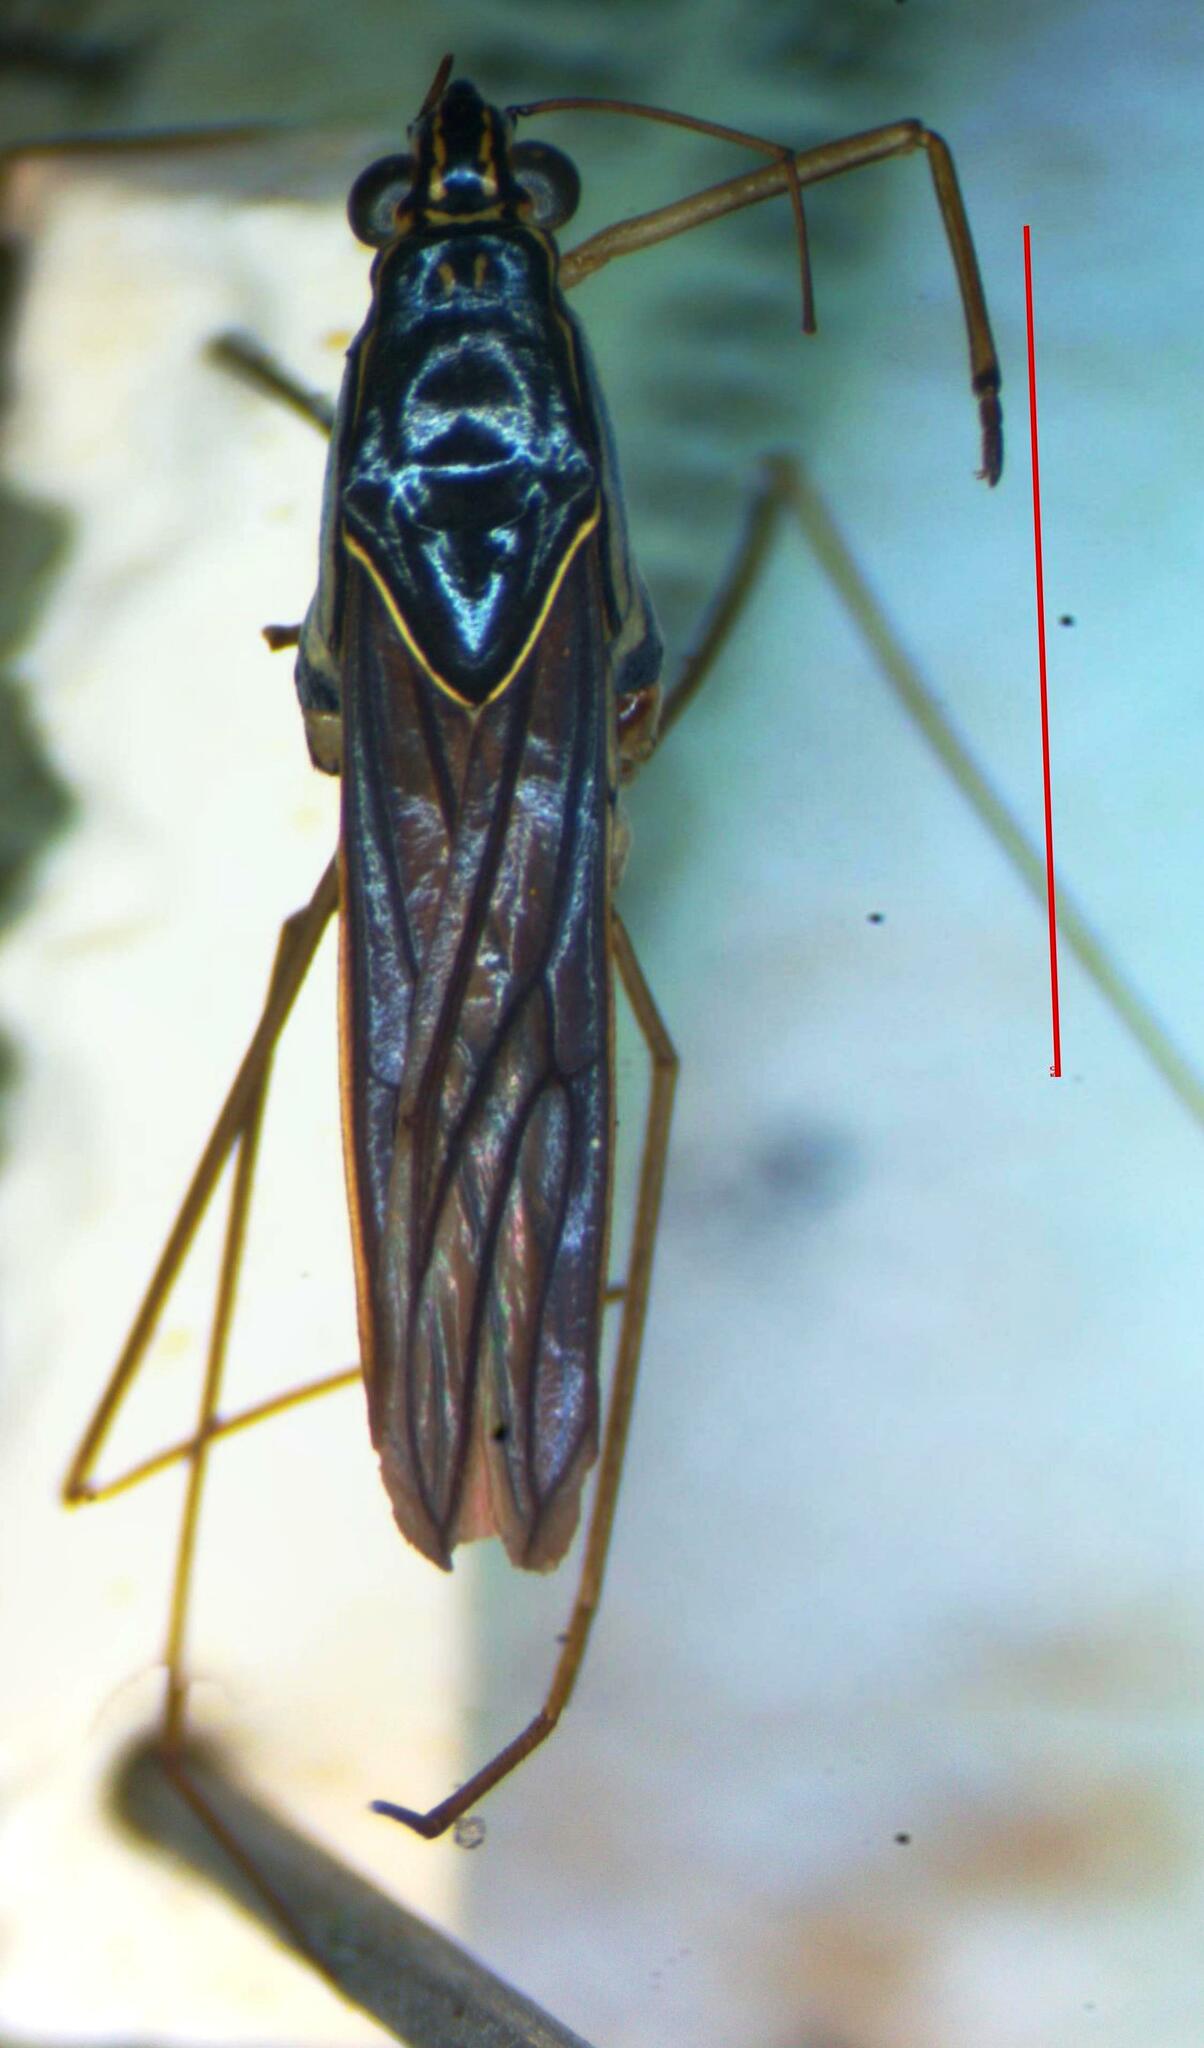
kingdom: Animalia
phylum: Arthropoda
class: Insecta
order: Hemiptera
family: Gerridae
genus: Limnogonus
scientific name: Limnogonus cereiventris
